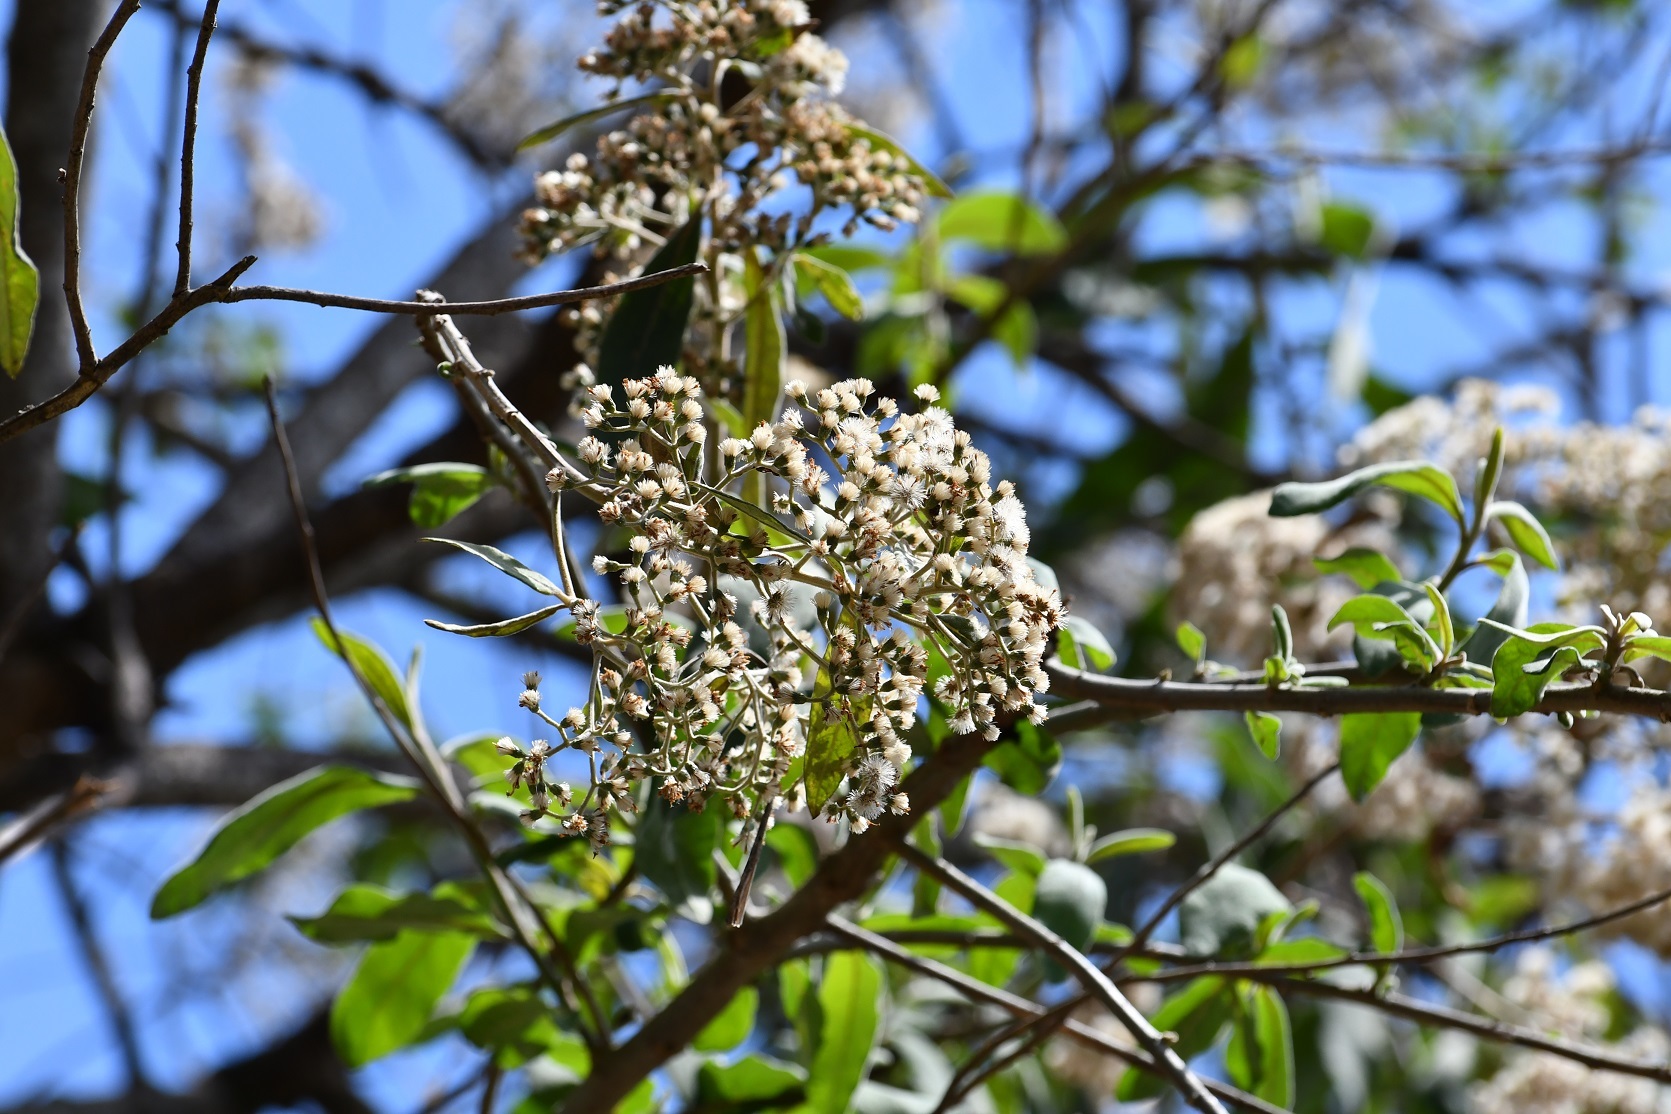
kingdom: Plantae
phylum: Tracheophyta
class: Magnoliopsida
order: Asterales
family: Asteraceae
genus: Vernonanthura
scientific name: Vernonanthura patens
